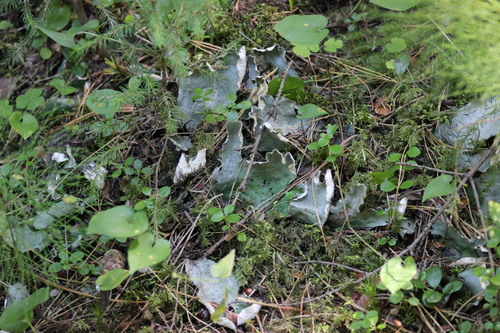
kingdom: Fungi
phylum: Ascomycota
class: Lecanoromycetes
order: Peltigerales
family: Peltigeraceae
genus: Peltigera
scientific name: Peltigera aphthosa
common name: Common freckle pelt lichen
